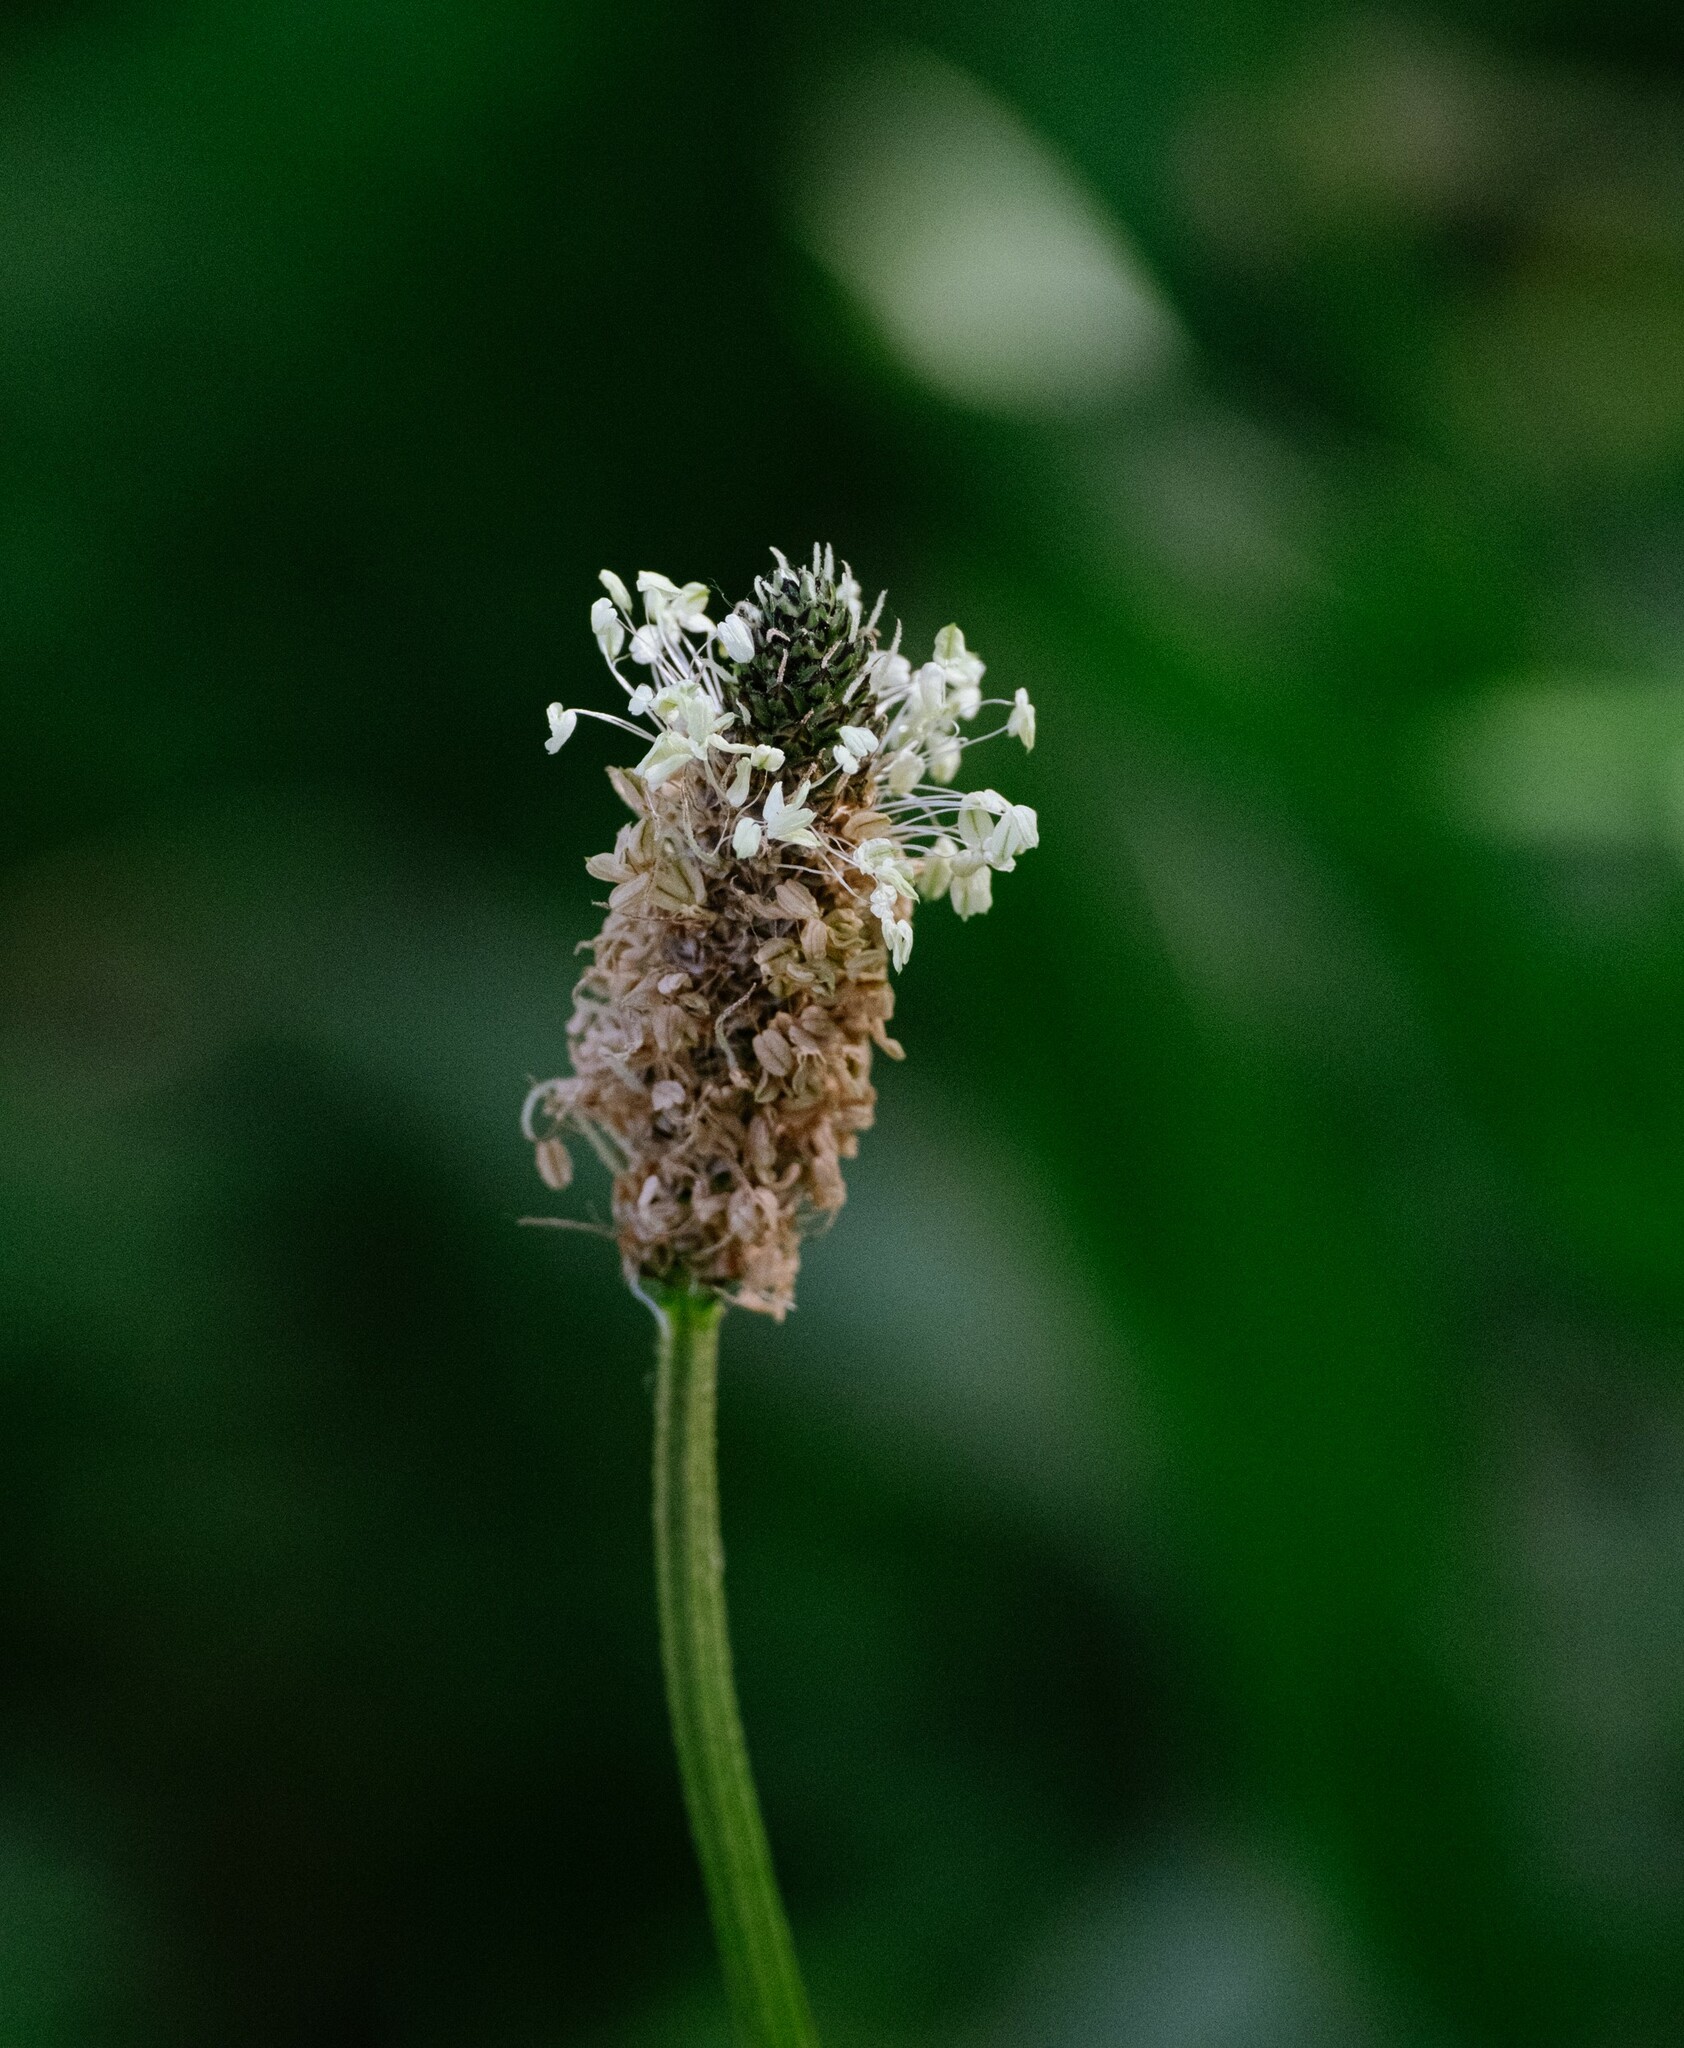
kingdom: Plantae
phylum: Tracheophyta
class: Magnoliopsida
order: Lamiales
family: Plantaginaceae
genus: Plantago
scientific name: Plantago lanceolata
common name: Ribwort plantain
